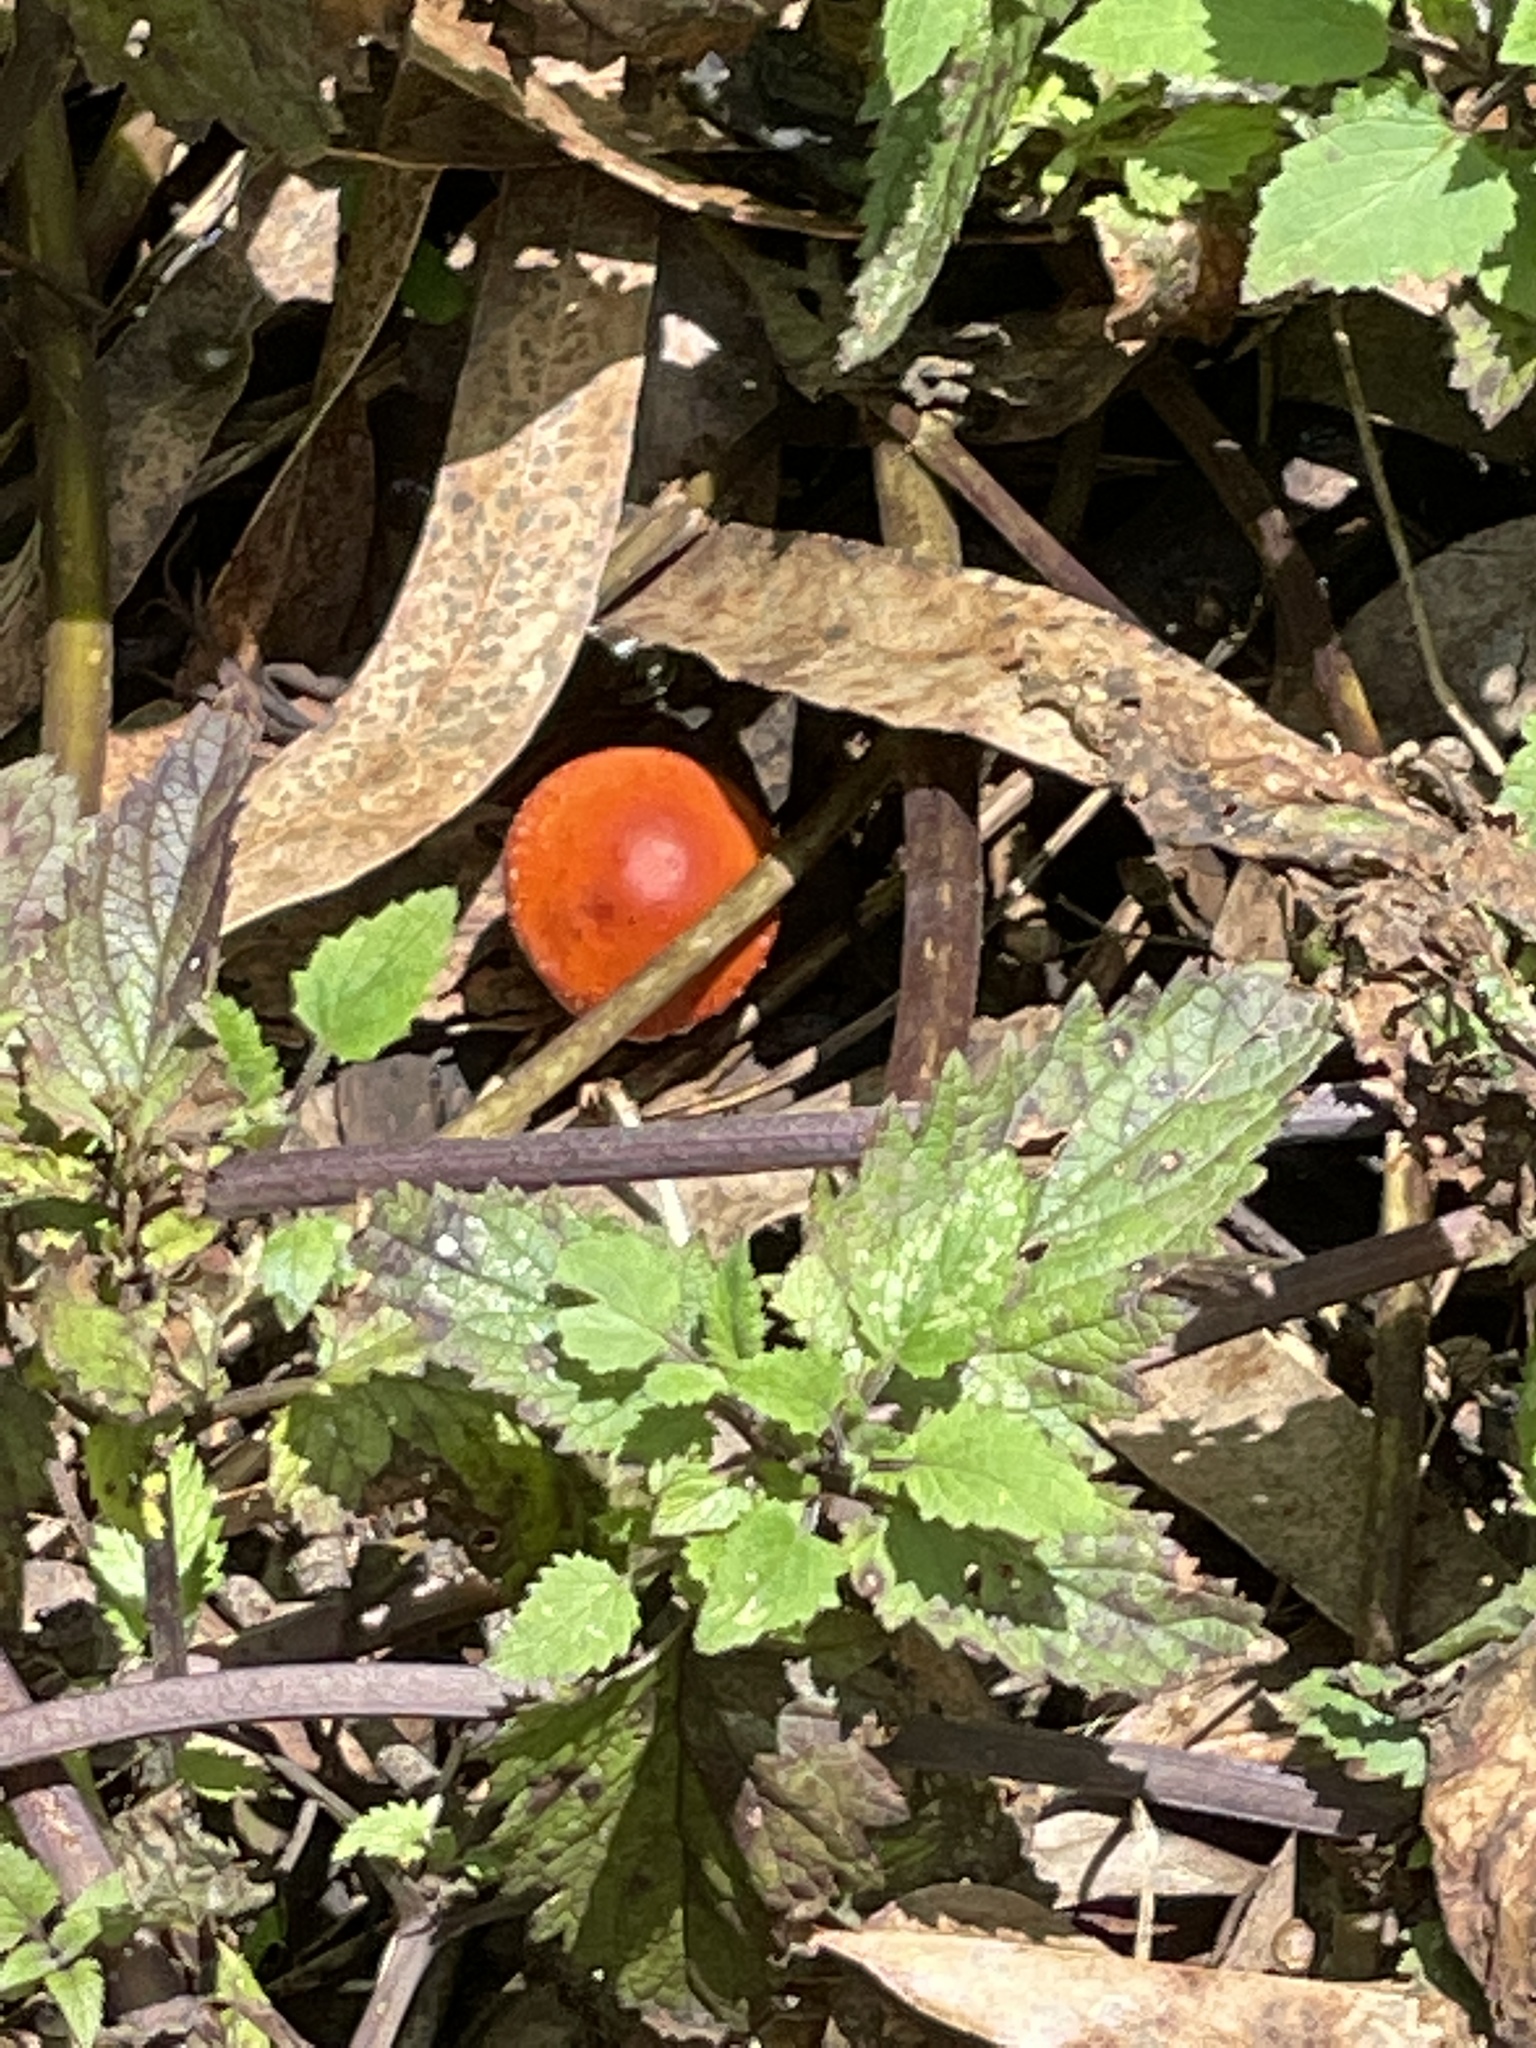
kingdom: Fungi
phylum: Basidiomycota
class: Agaricomycetes
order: Agaricales
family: Strophariaceae
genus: Leratiomyces
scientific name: Leratiomyces ceres
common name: Redlead roundhead
